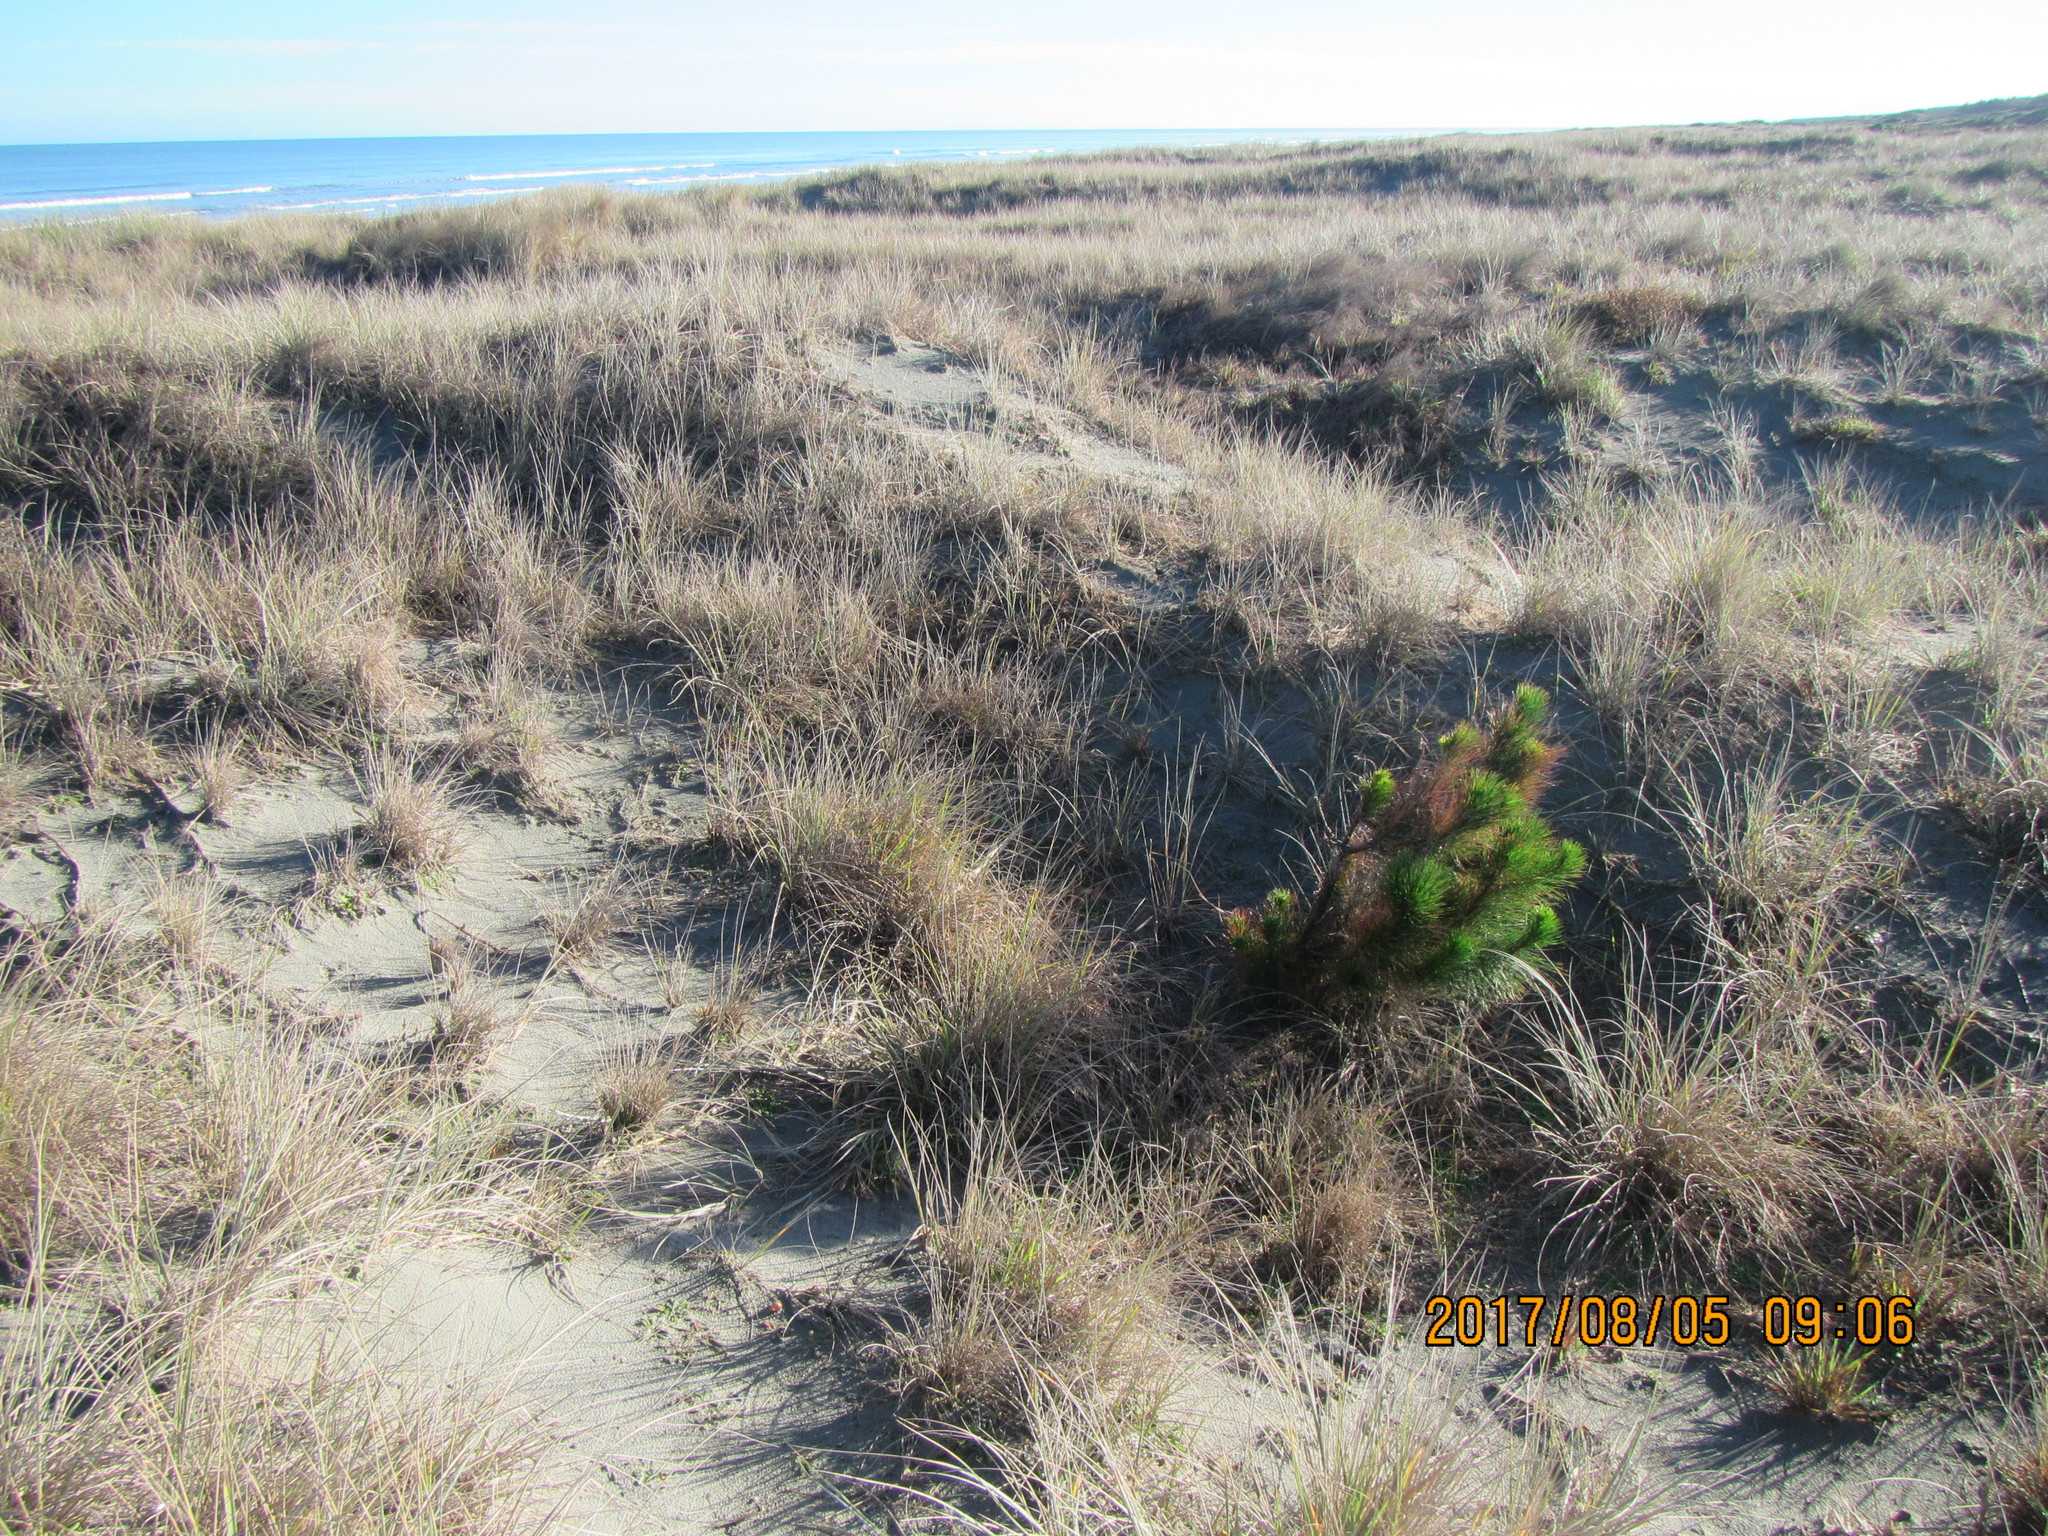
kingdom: Plantae
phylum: Tracheophyta
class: Pinopsida
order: Pinales
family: Pinaceae
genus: Pinus
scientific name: Pinus radiata
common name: Monterey pine
